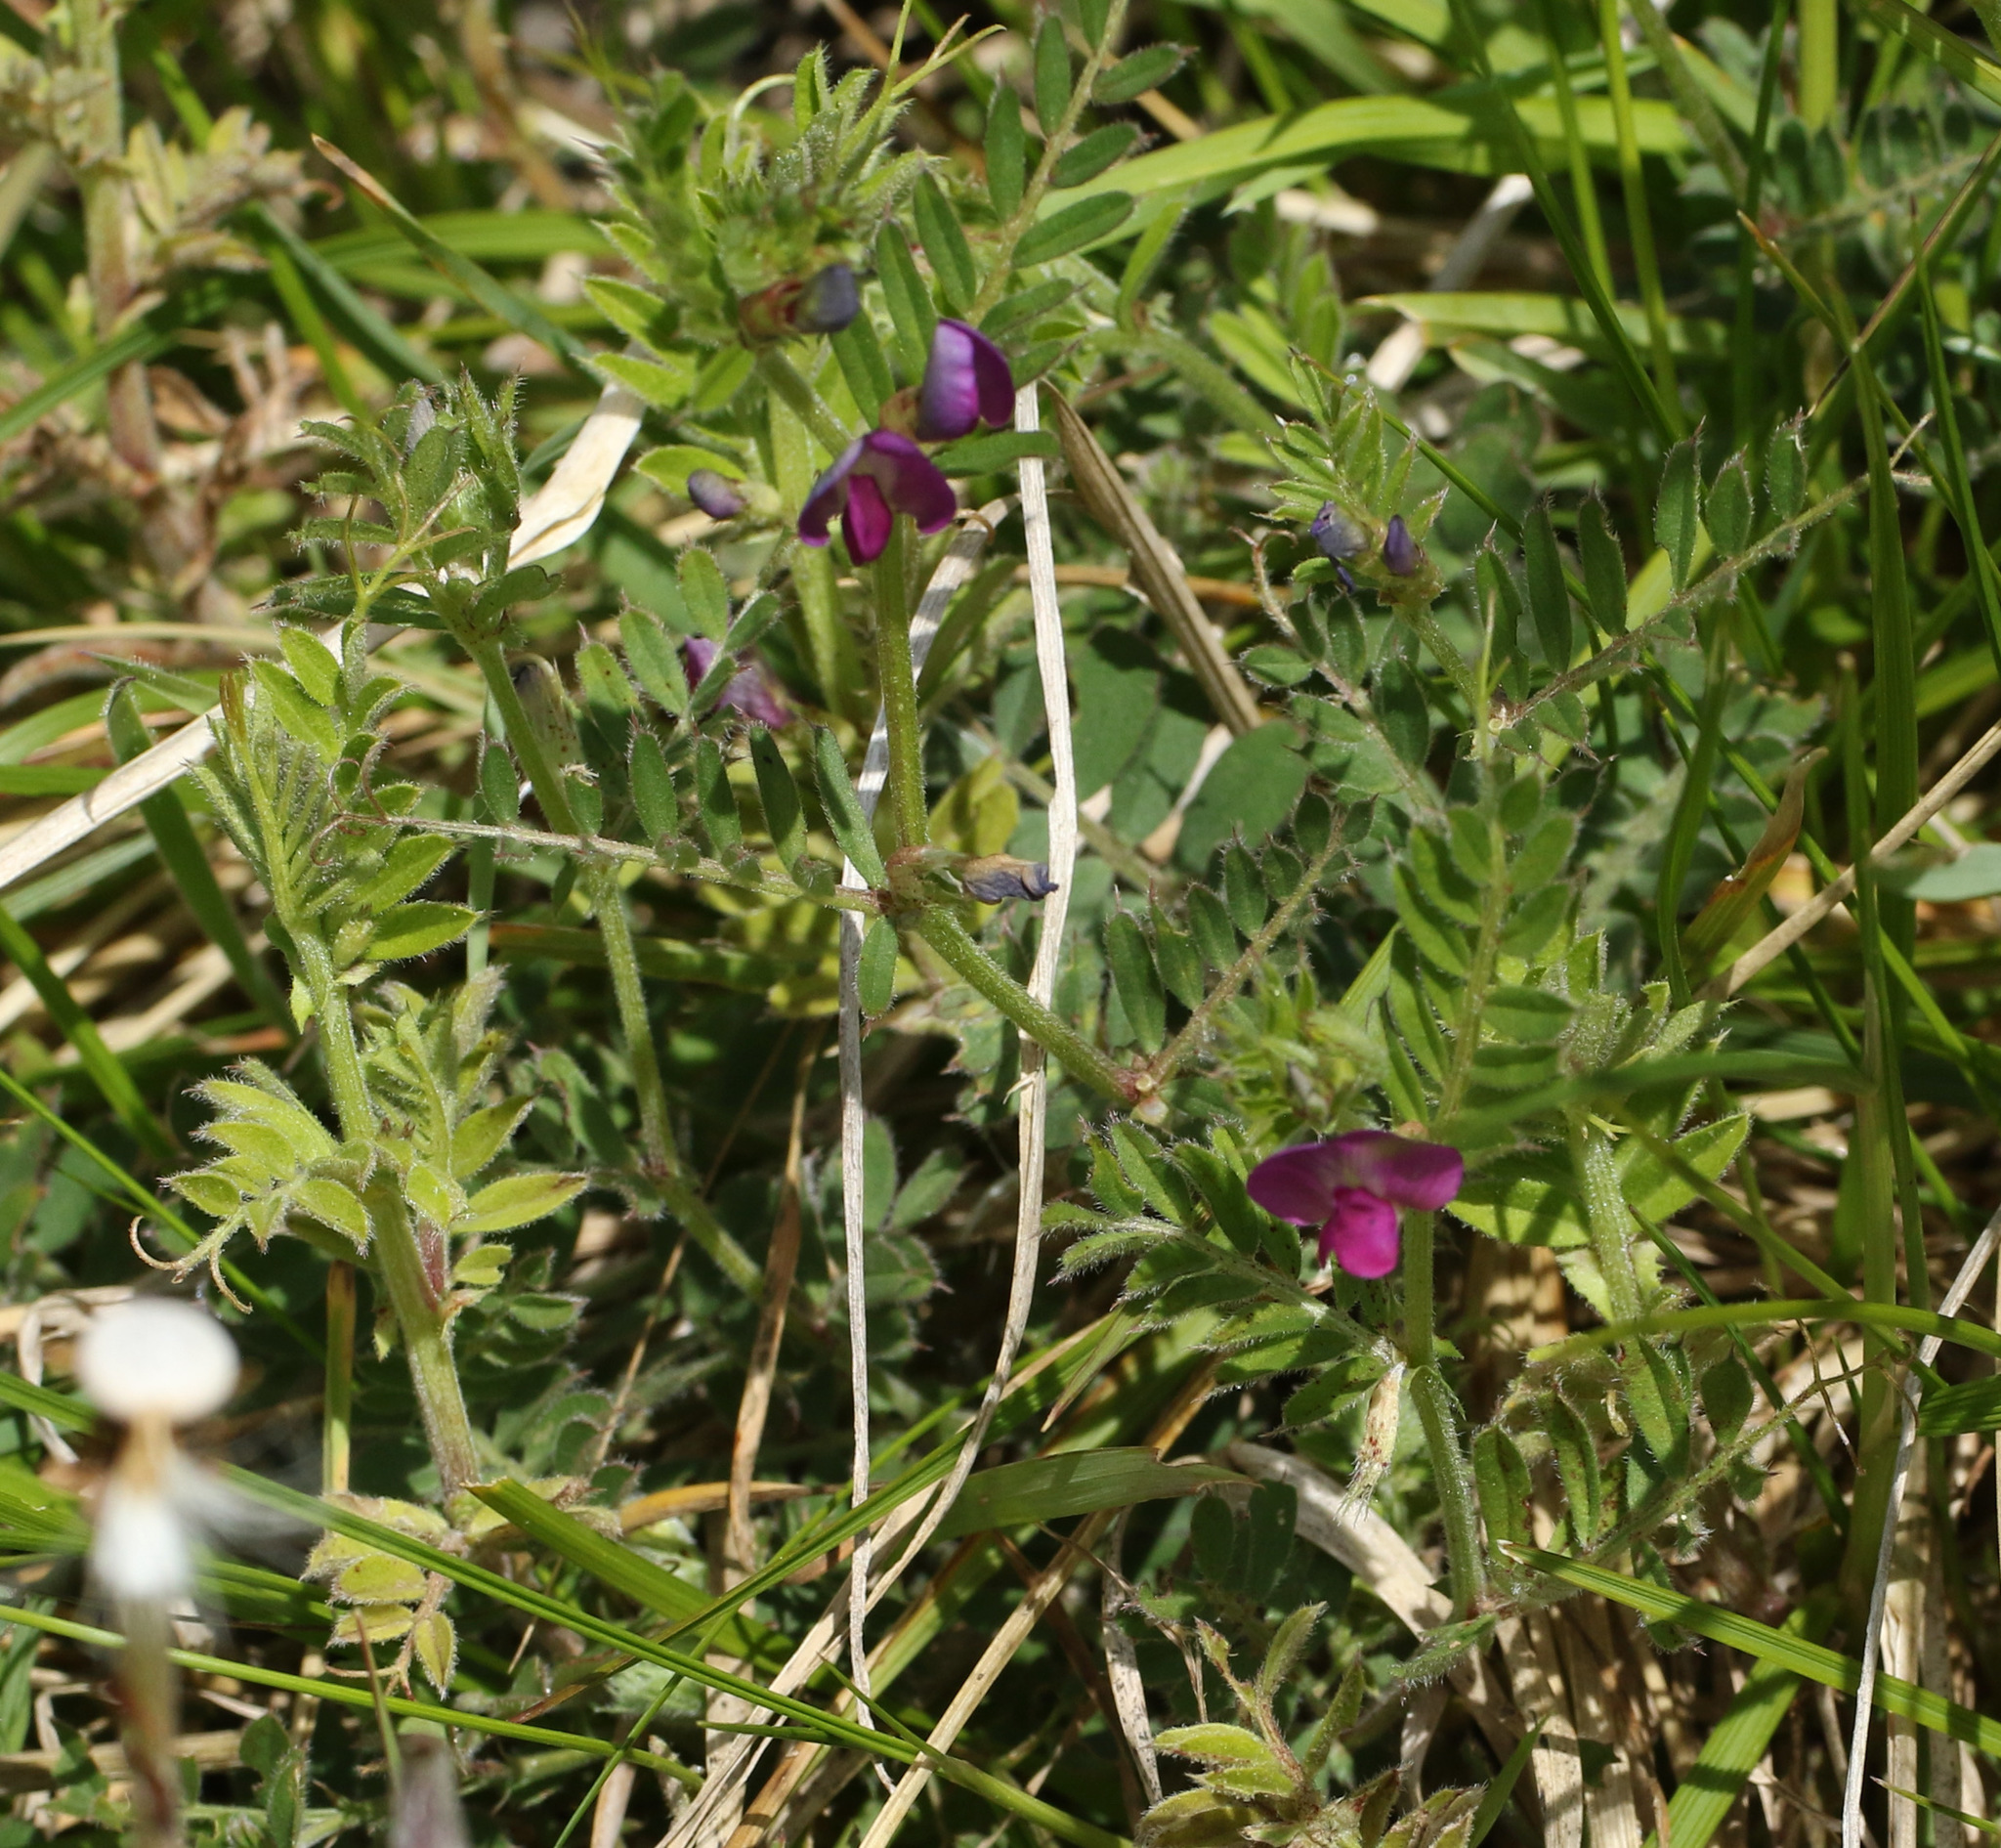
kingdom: Plantae
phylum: Tracheophyta
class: Magnoliopsida
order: Fabales
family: Fabaceae
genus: Vicia
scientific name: Vicia sativa
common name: Garden vetch
